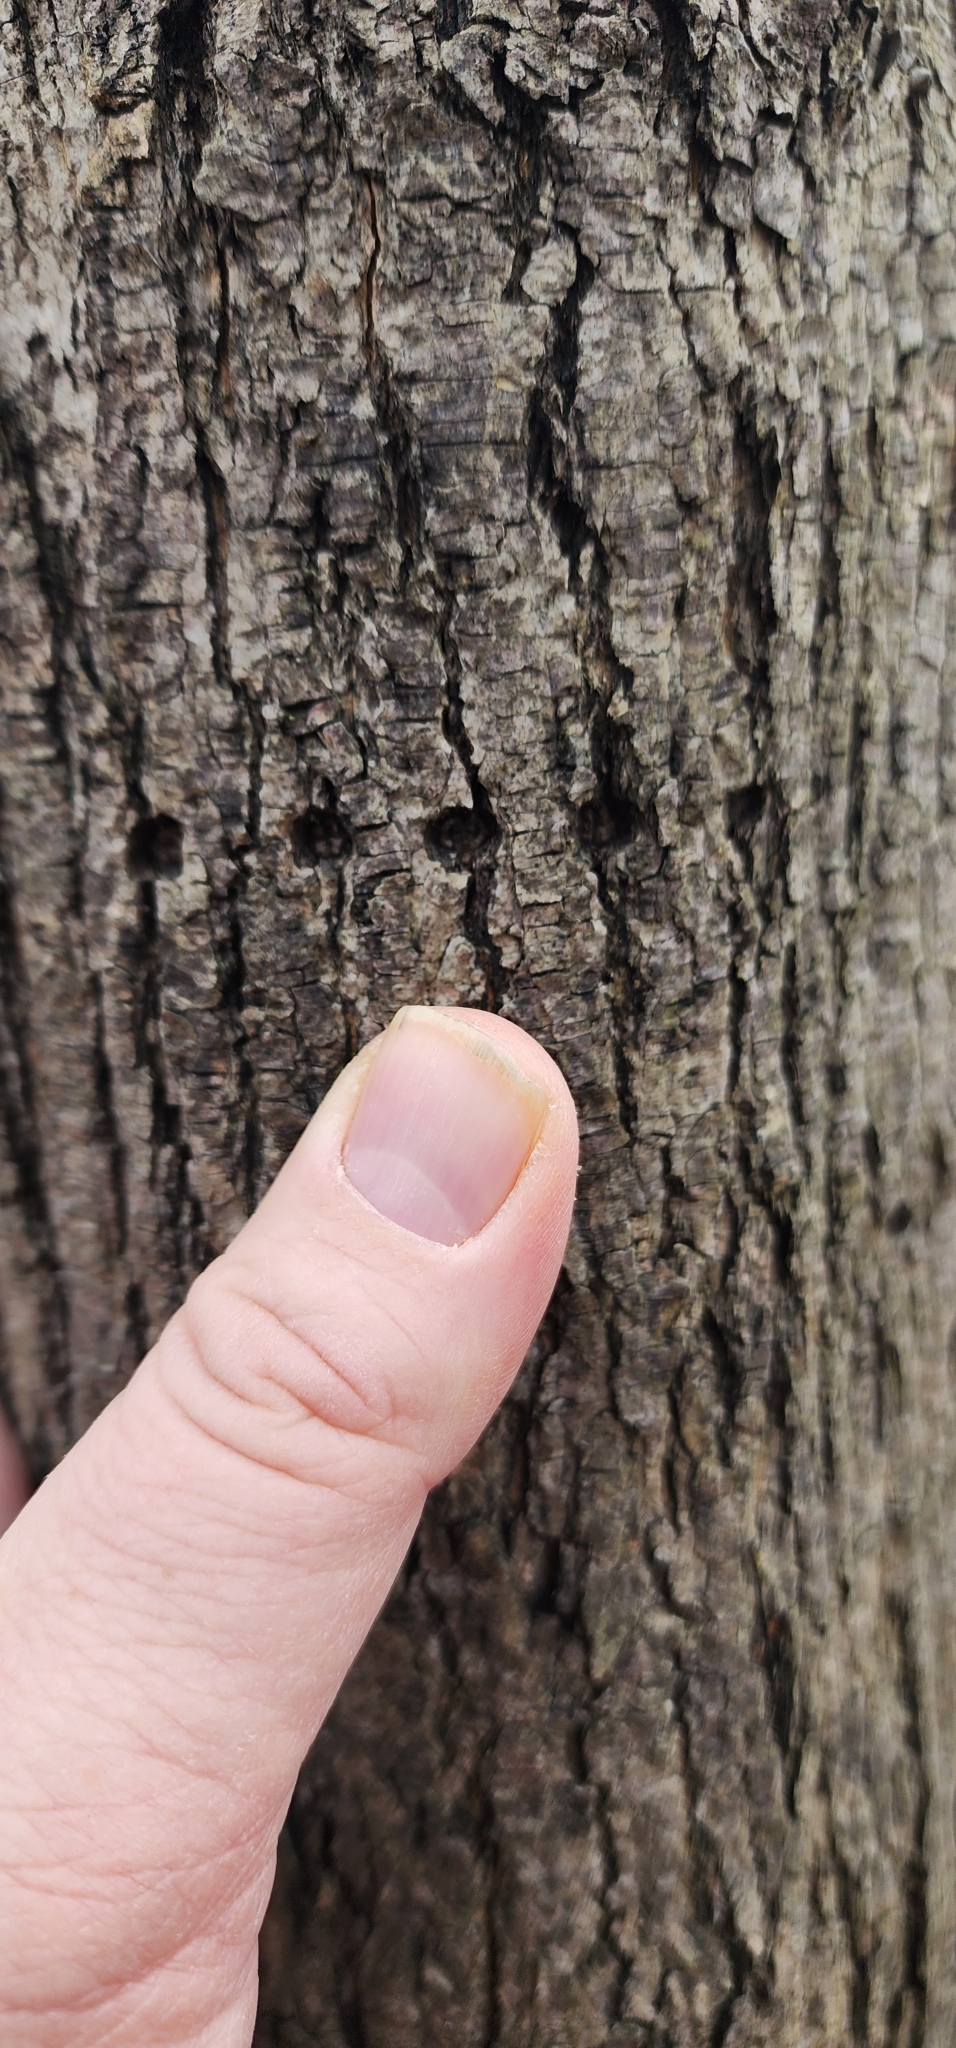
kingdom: Animalia
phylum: Chordata
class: Aves
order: Piciformes
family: Picidae
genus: Sphyrapicus
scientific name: Sphyrapicus varius
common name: Yellow-bellied sapsucker
